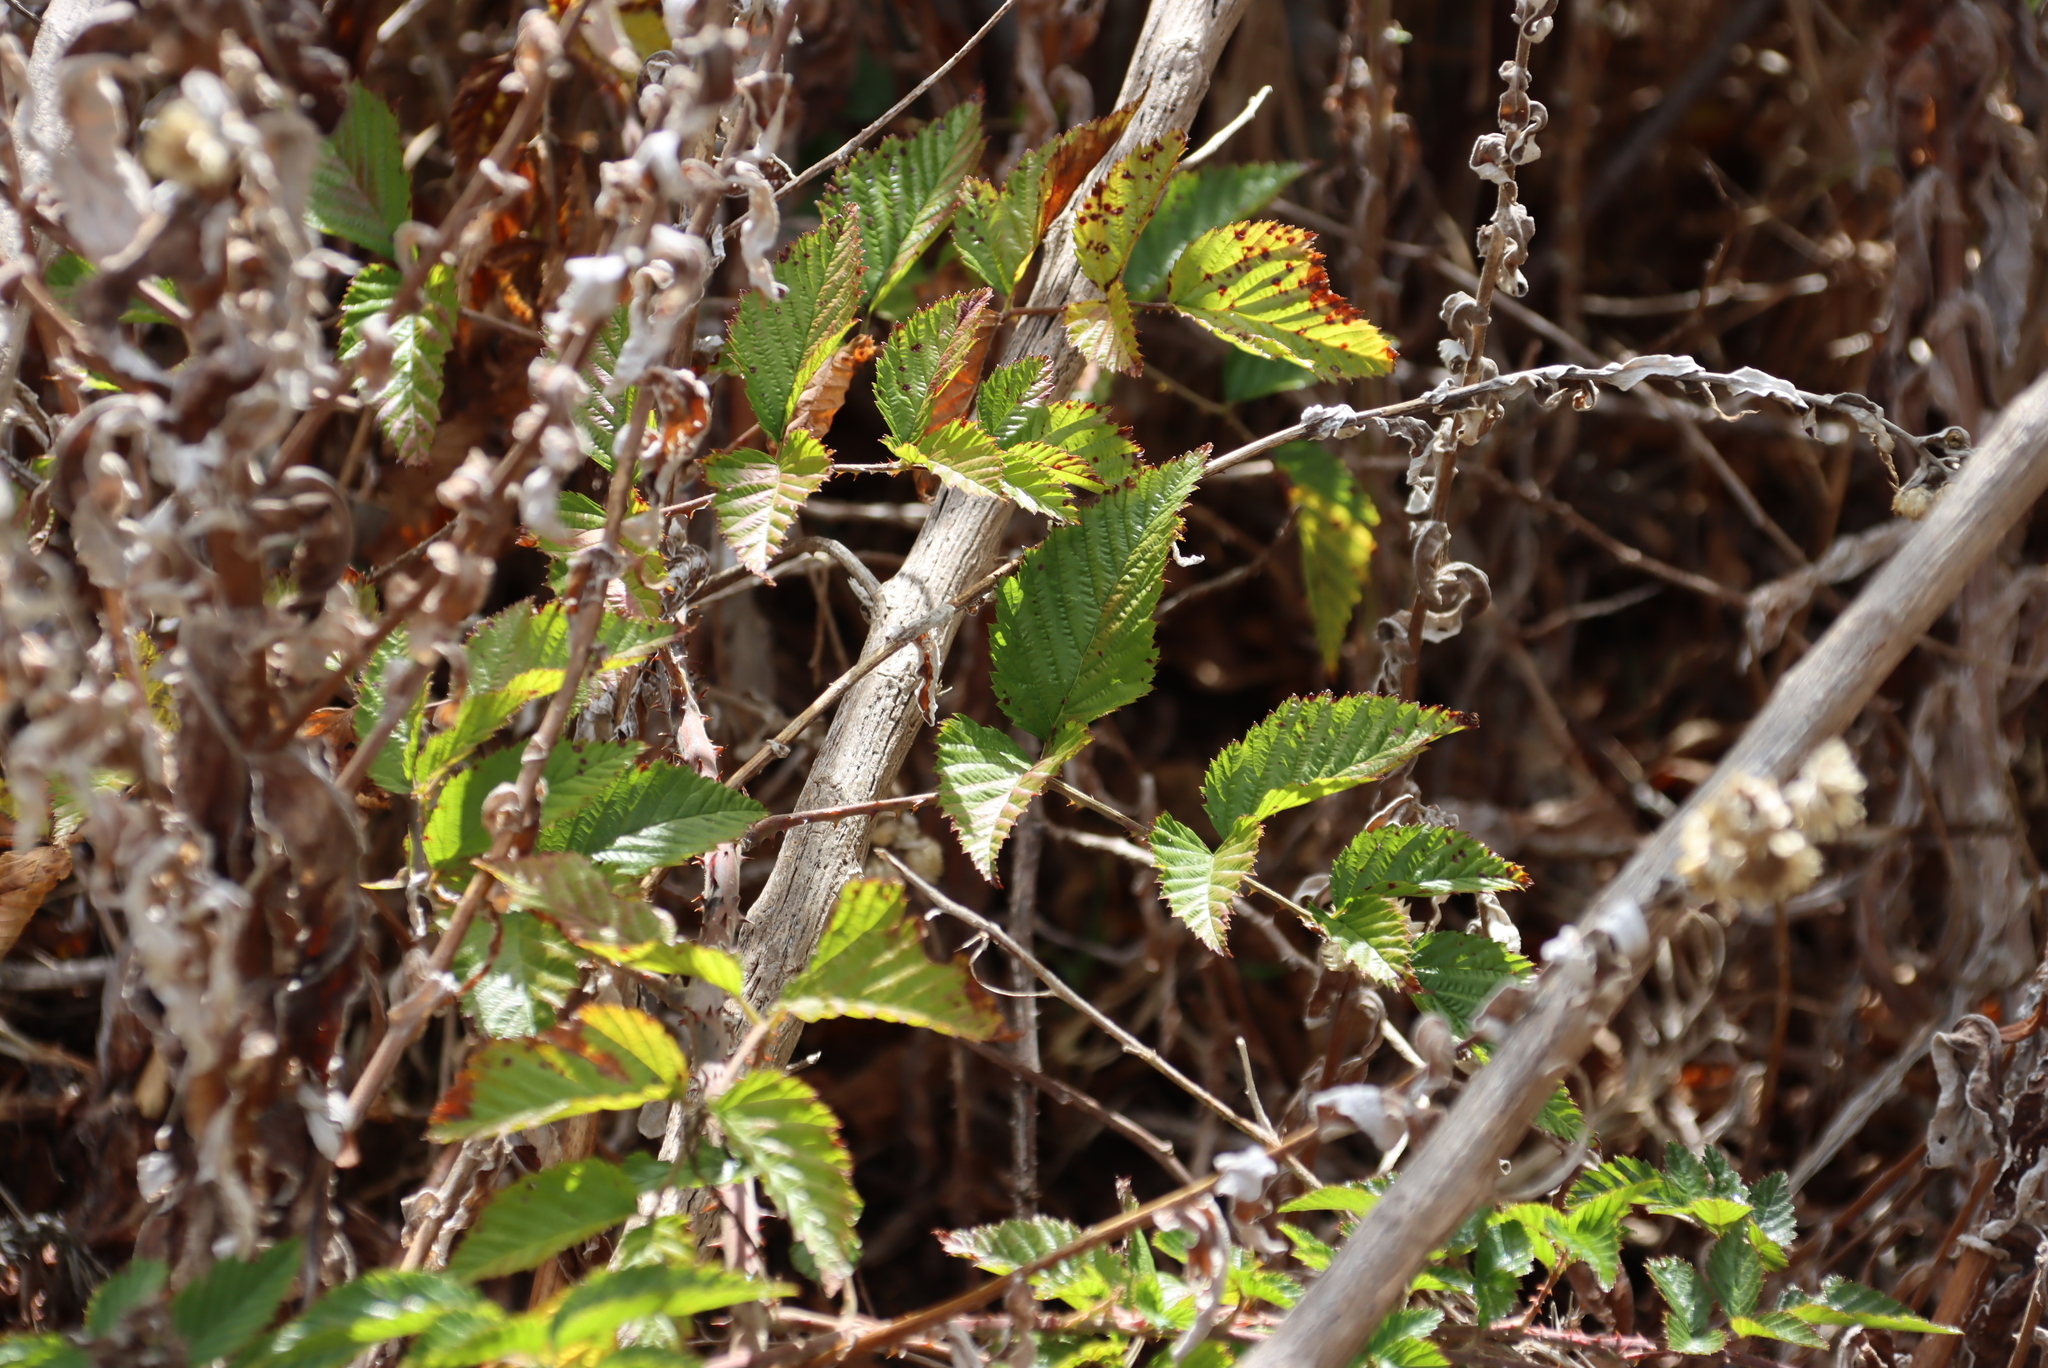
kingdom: Plantae
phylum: Tracheophyta
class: Magnoliopsida
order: Rosales
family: Rosaceae
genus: Rubus
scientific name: Rubus pinnatus
